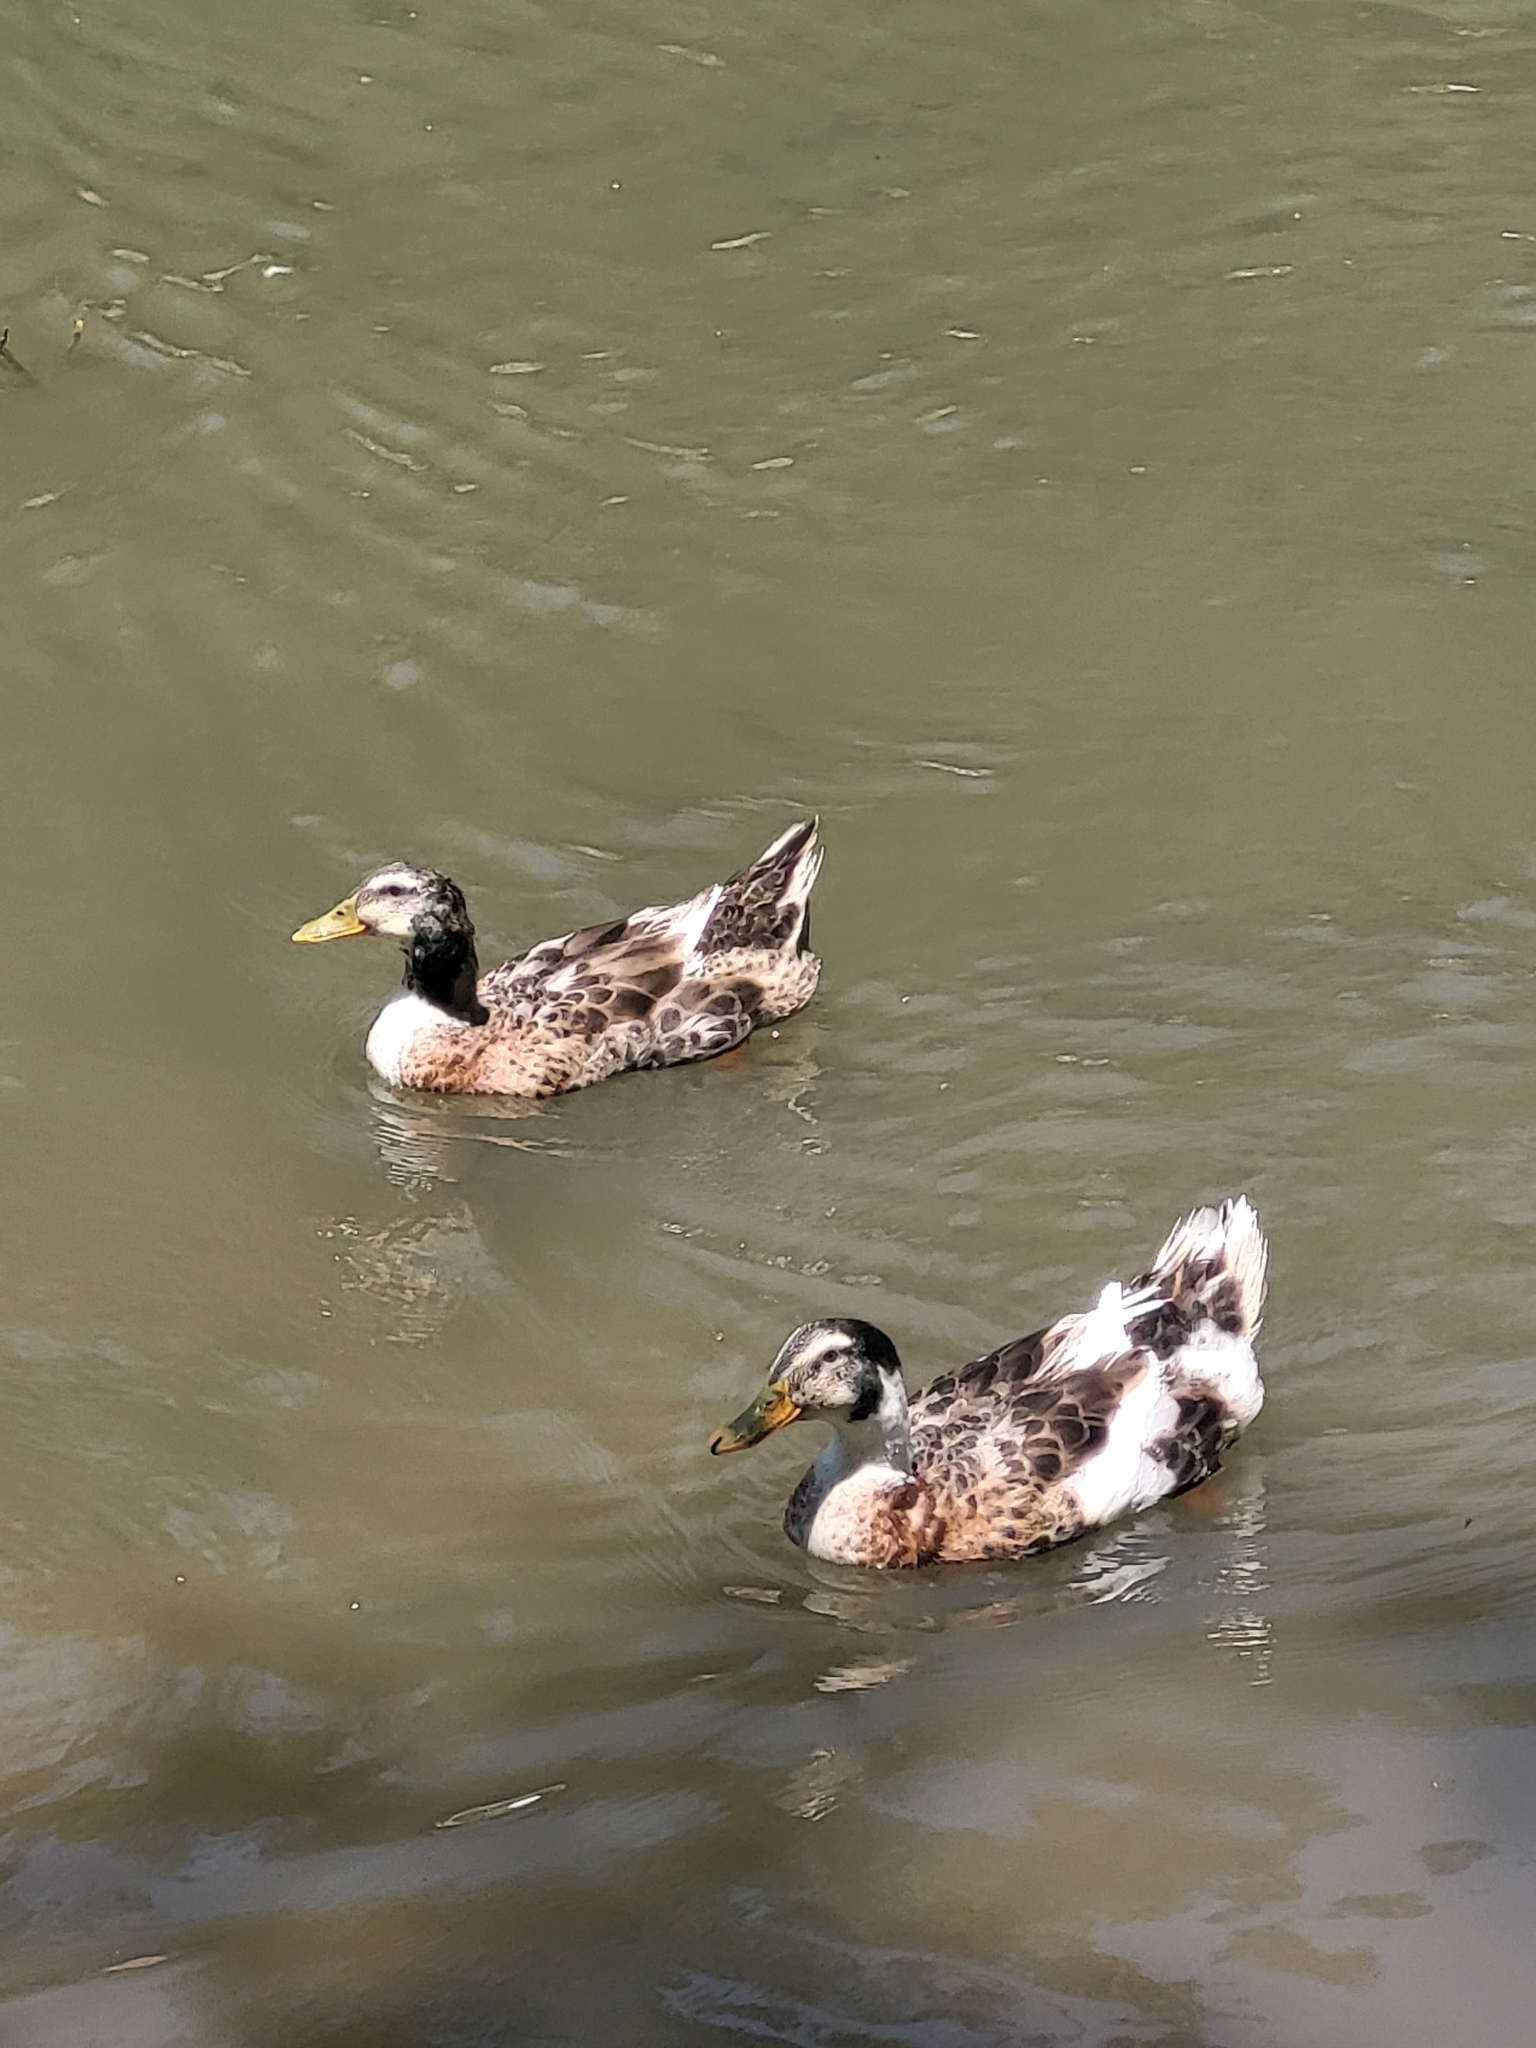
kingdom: Animalia
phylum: Chordata
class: Aves
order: Anseriformes
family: Anatidae
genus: Anas
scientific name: Anas platyrhynchos
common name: Mallard
